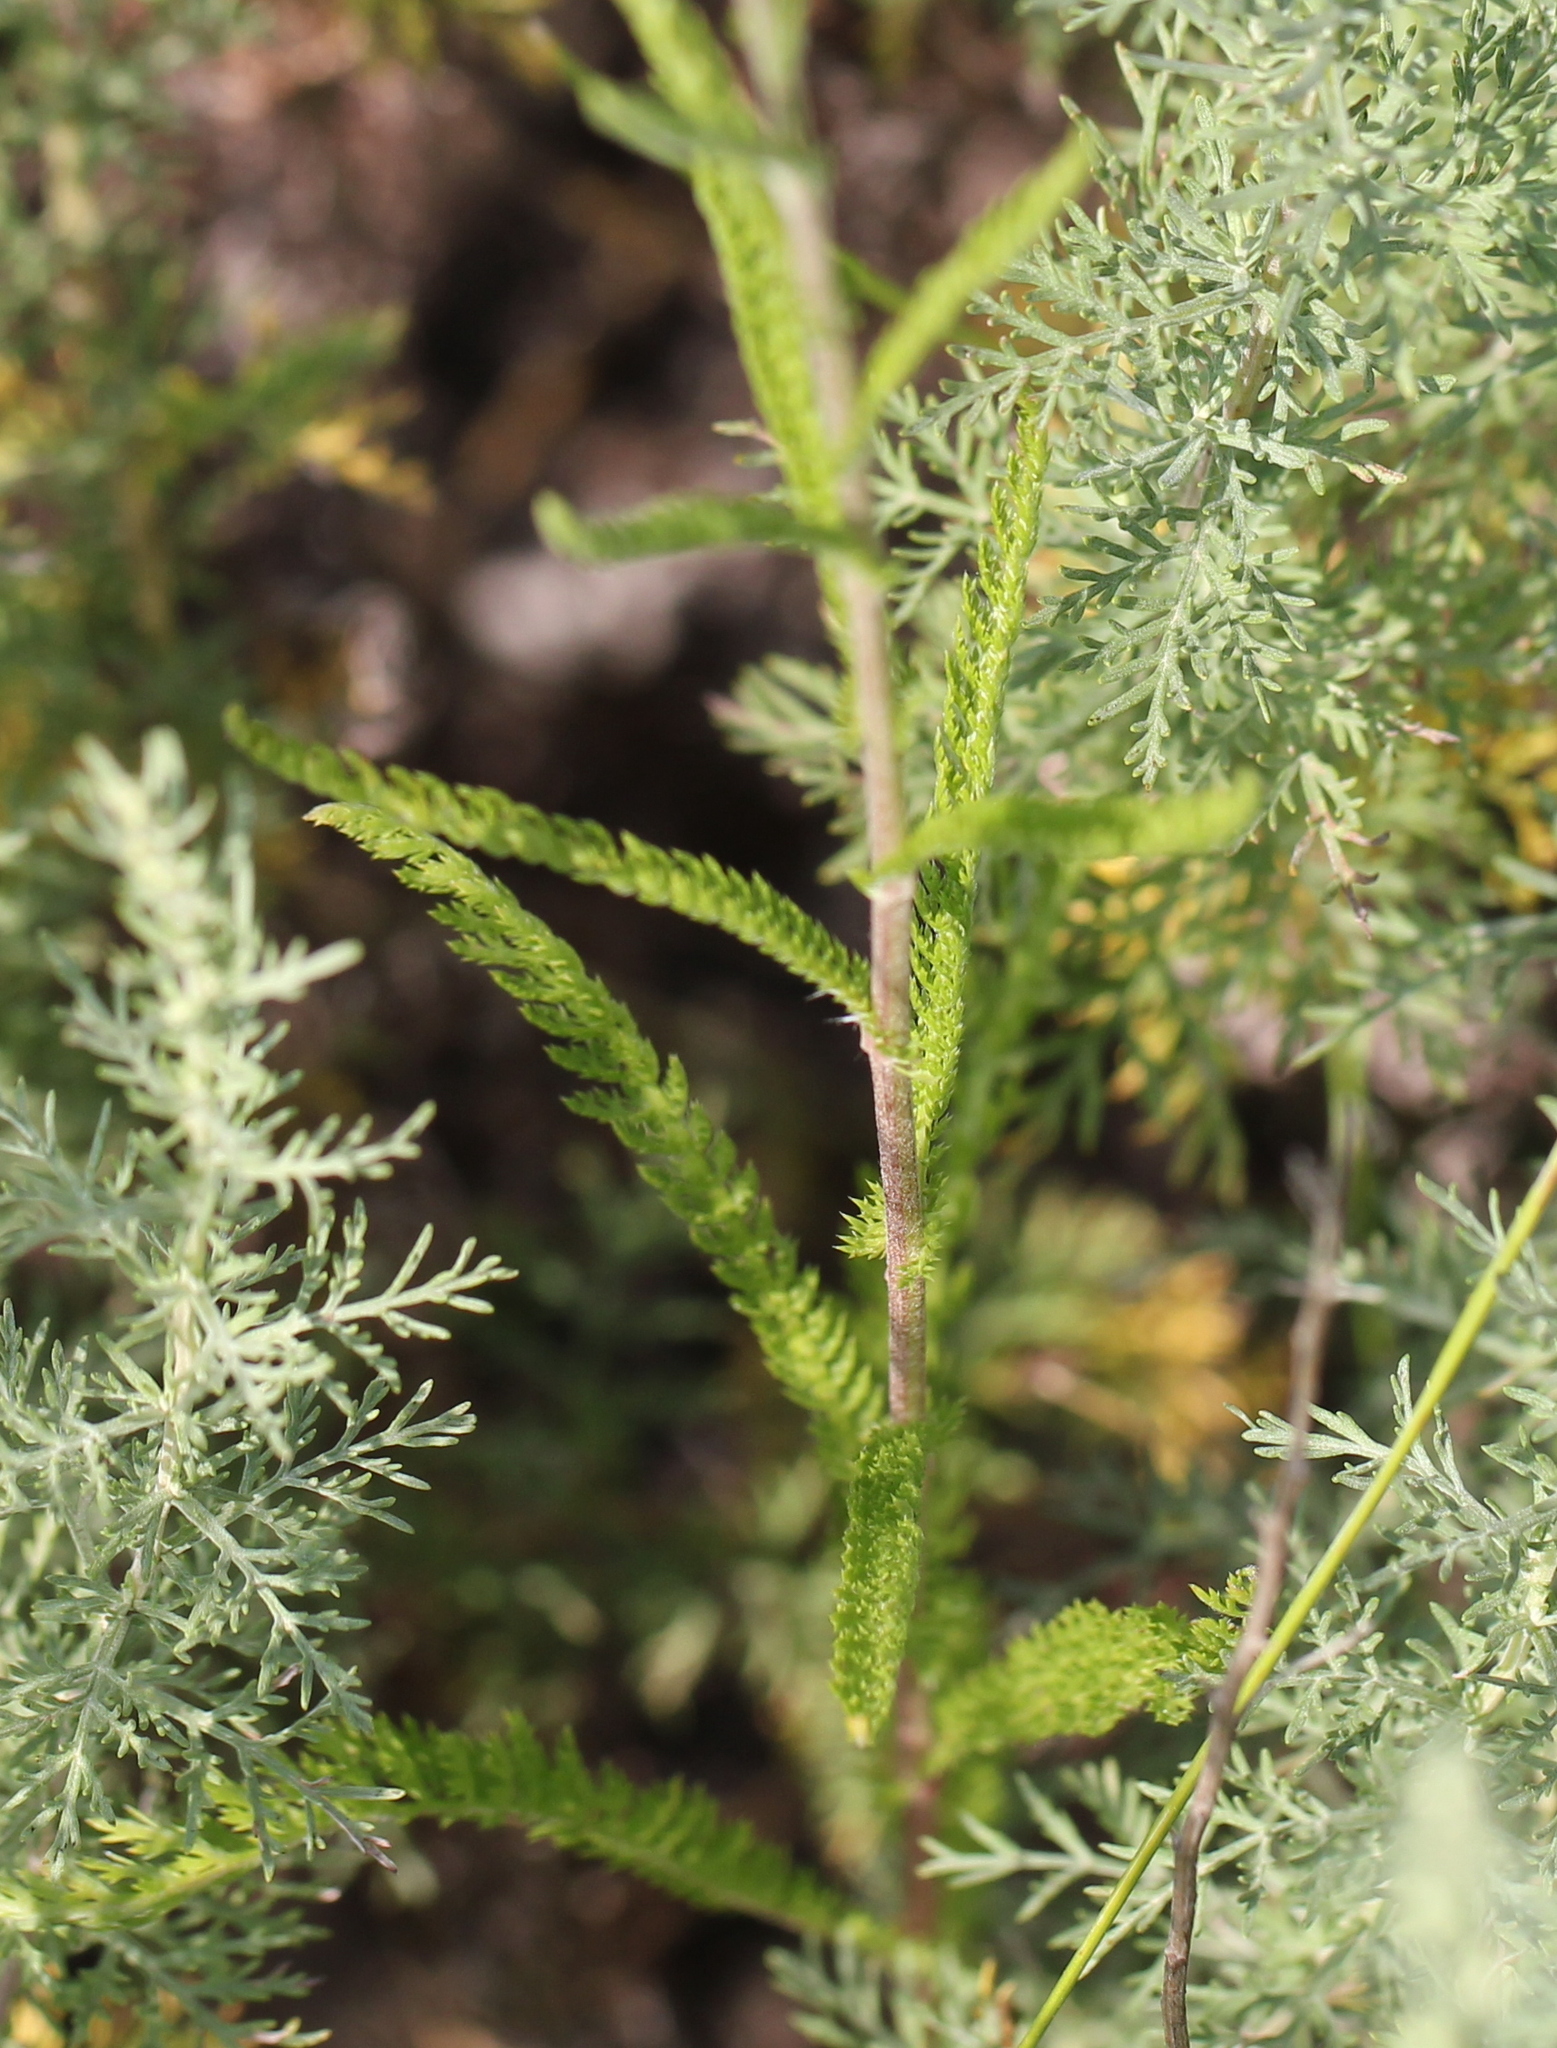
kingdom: Plantae
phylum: Tracheophyta
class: Magnoliopsida
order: Asterales
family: Asteraceae
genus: Achillea
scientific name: Achillea asiatica
